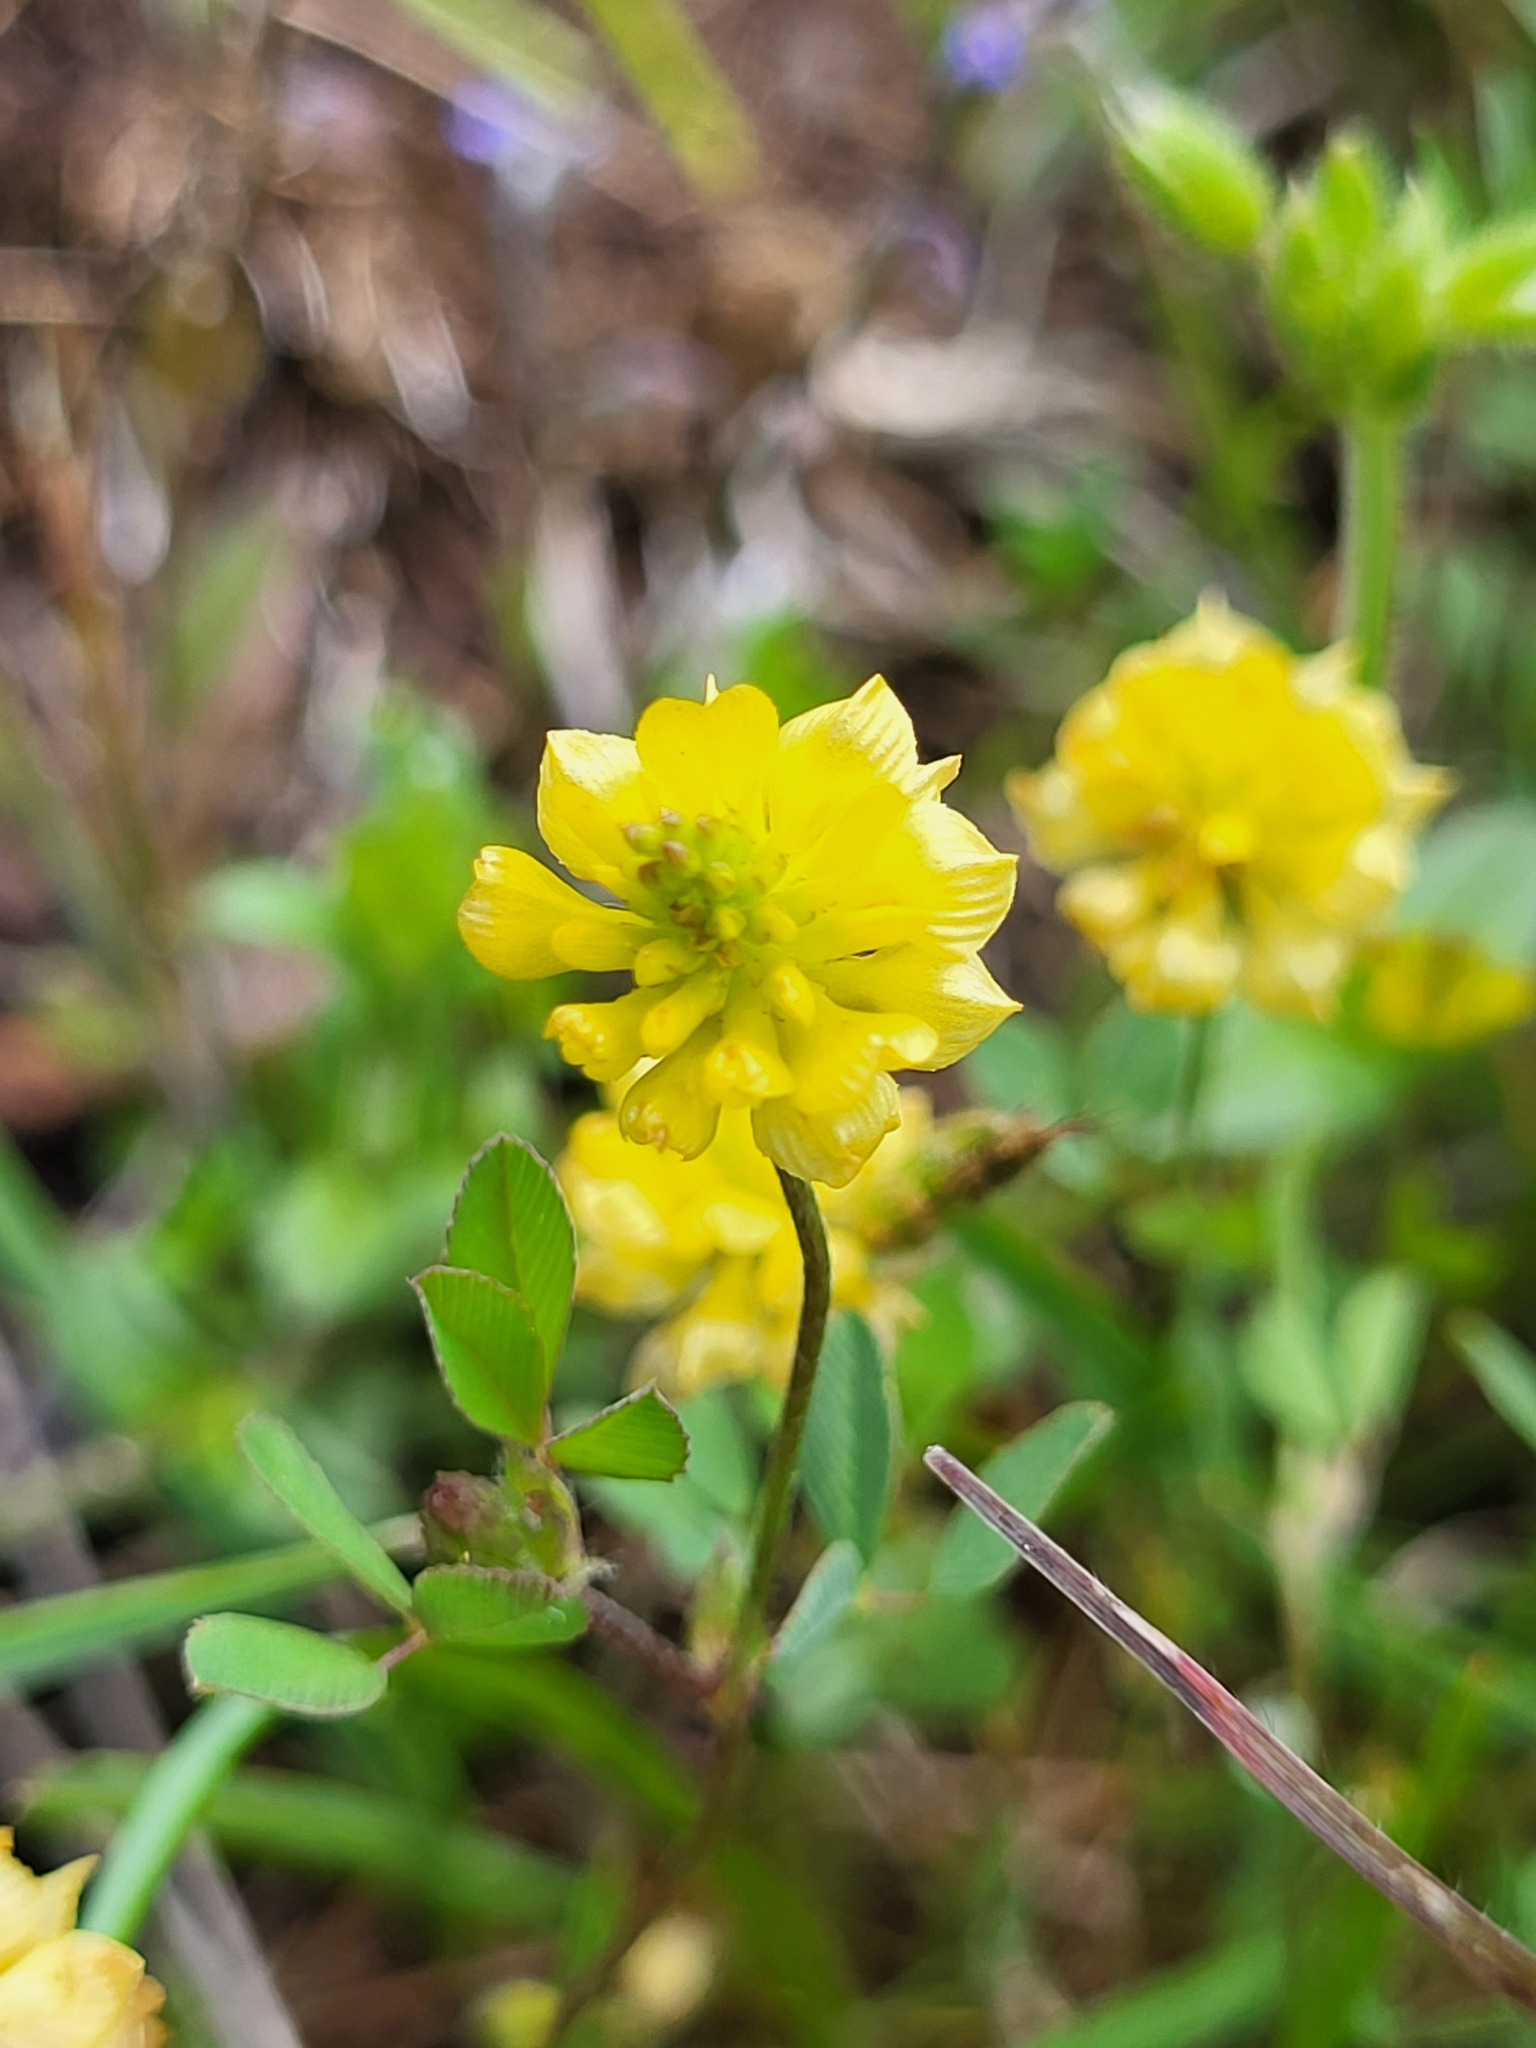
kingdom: Plantae
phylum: Tracheophyta
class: Magnoliopsida
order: Fabales
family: Fabaceae
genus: Trifolium
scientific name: Trifolium campestre
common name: Field clover
